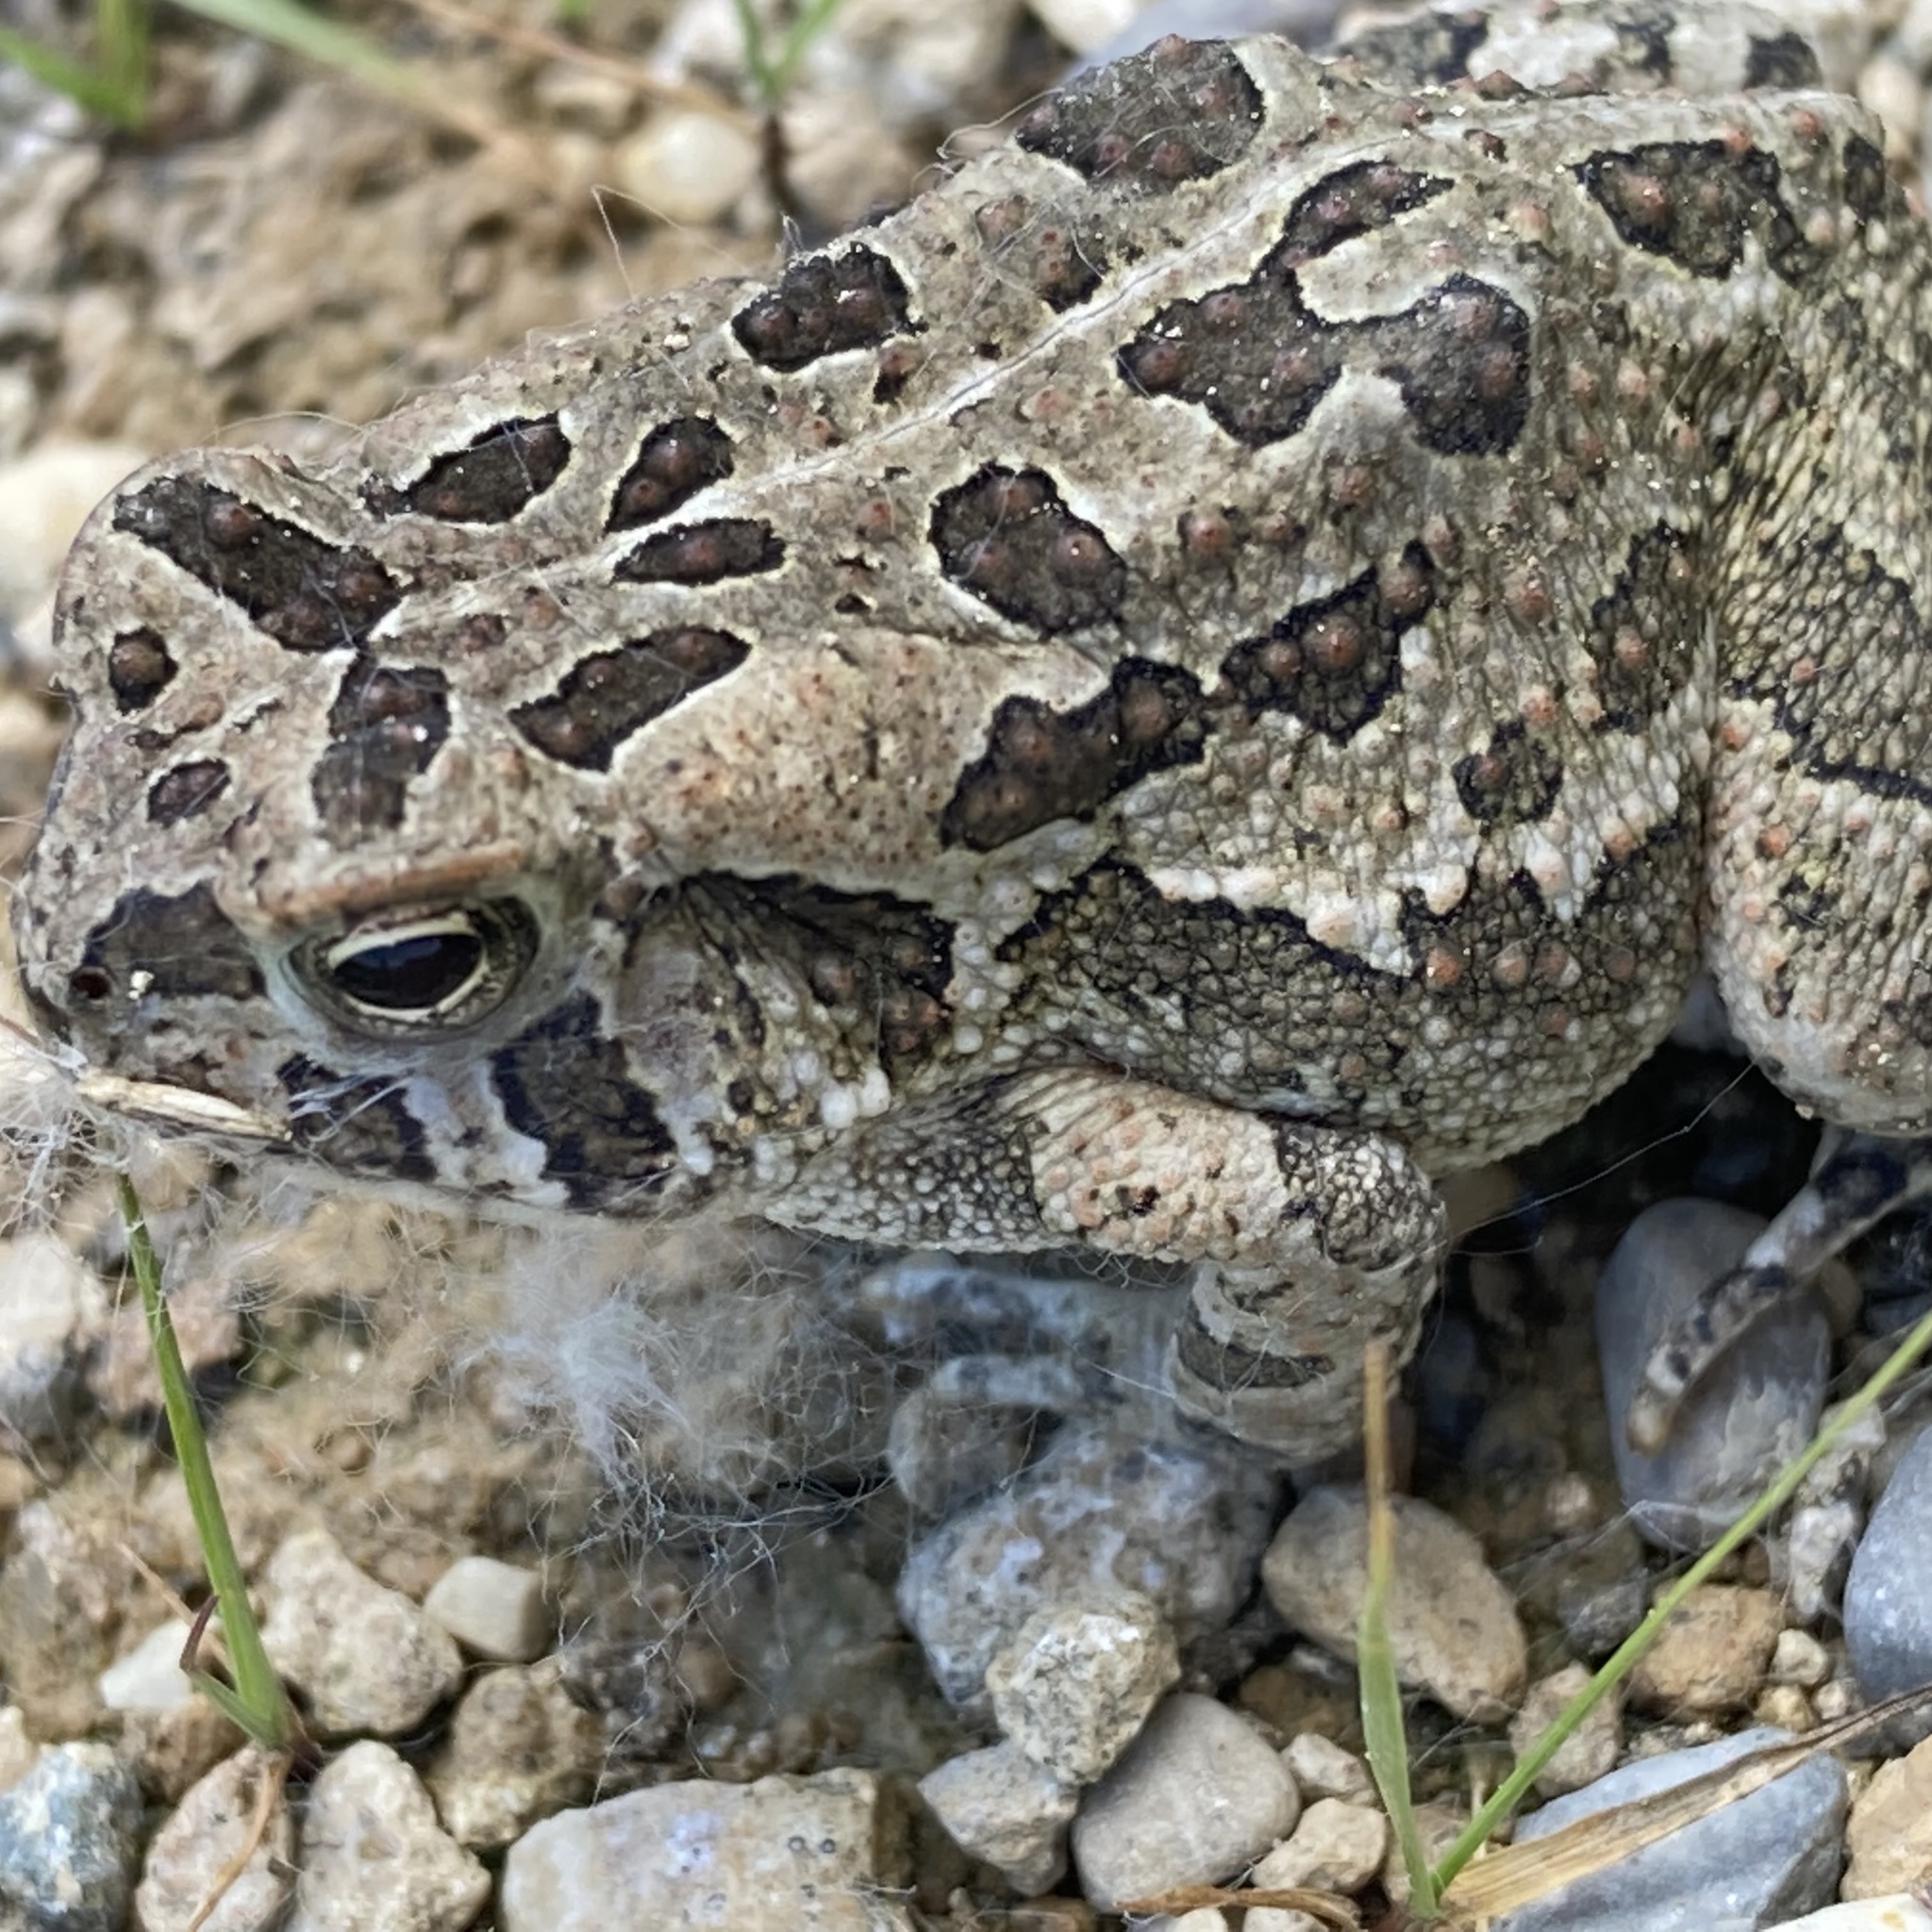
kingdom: Animalia
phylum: Chordata
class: Amphibia
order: Anura
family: Bufonidae
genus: Anaxyrus
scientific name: Anaxyrus fowleri
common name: Fowler's toad
